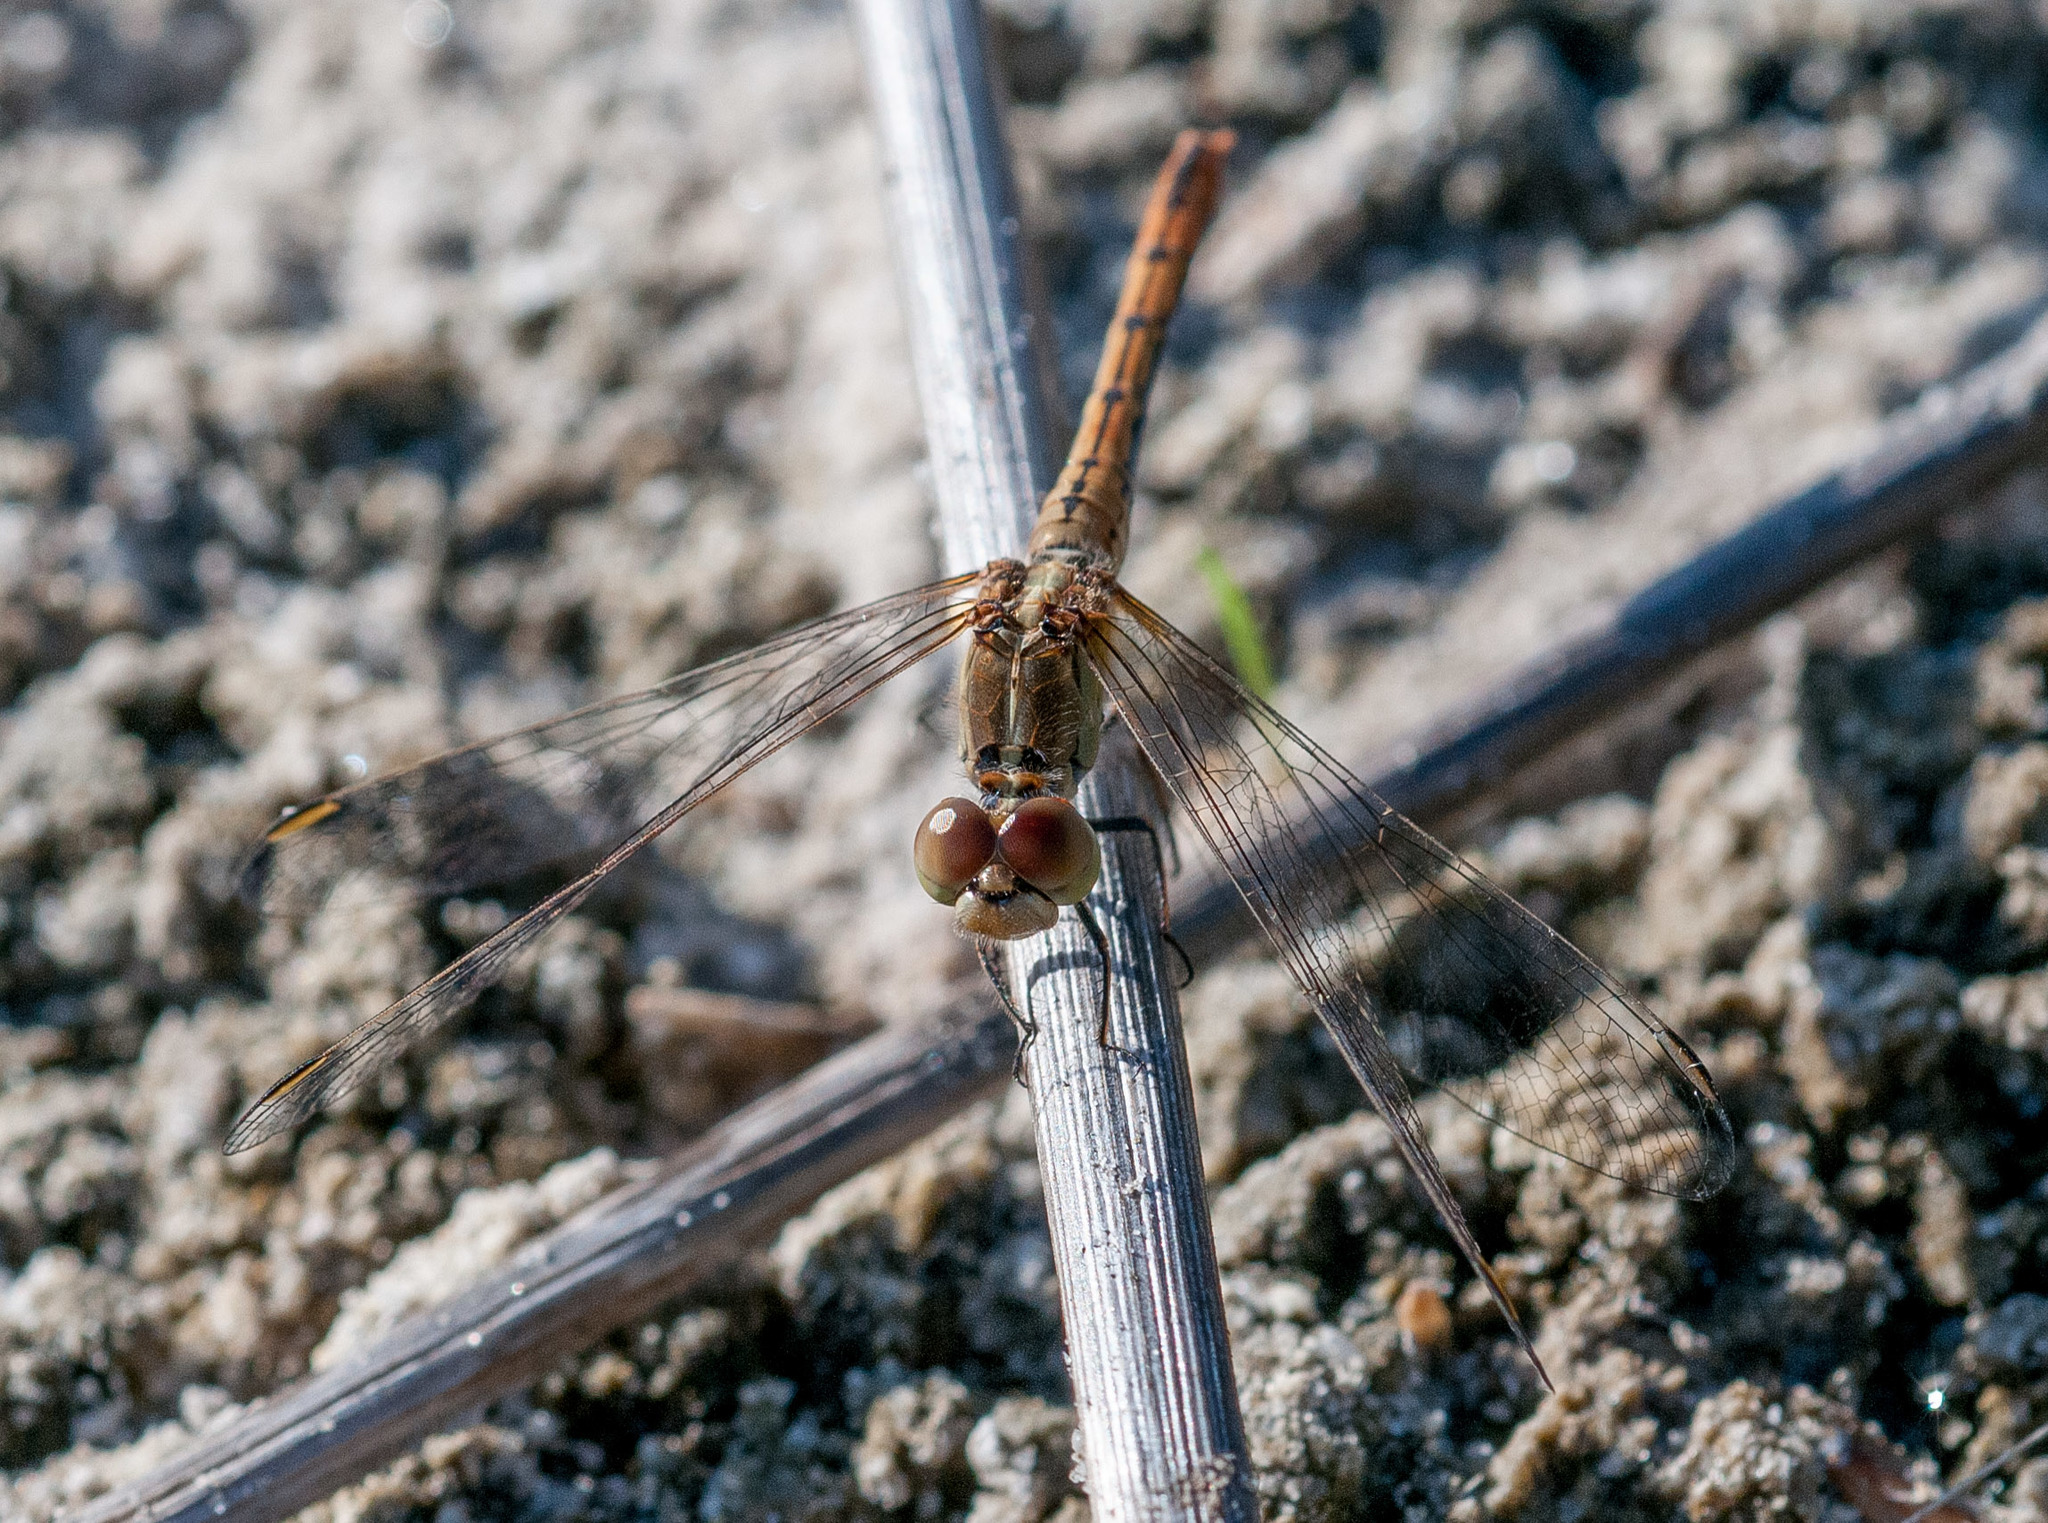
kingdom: Animalia
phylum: Arthropoda
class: Insecta
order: Odonata
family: Libellulidae
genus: Diplacodes
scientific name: Diplacodes bipunctata
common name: Red percher dragonfly
